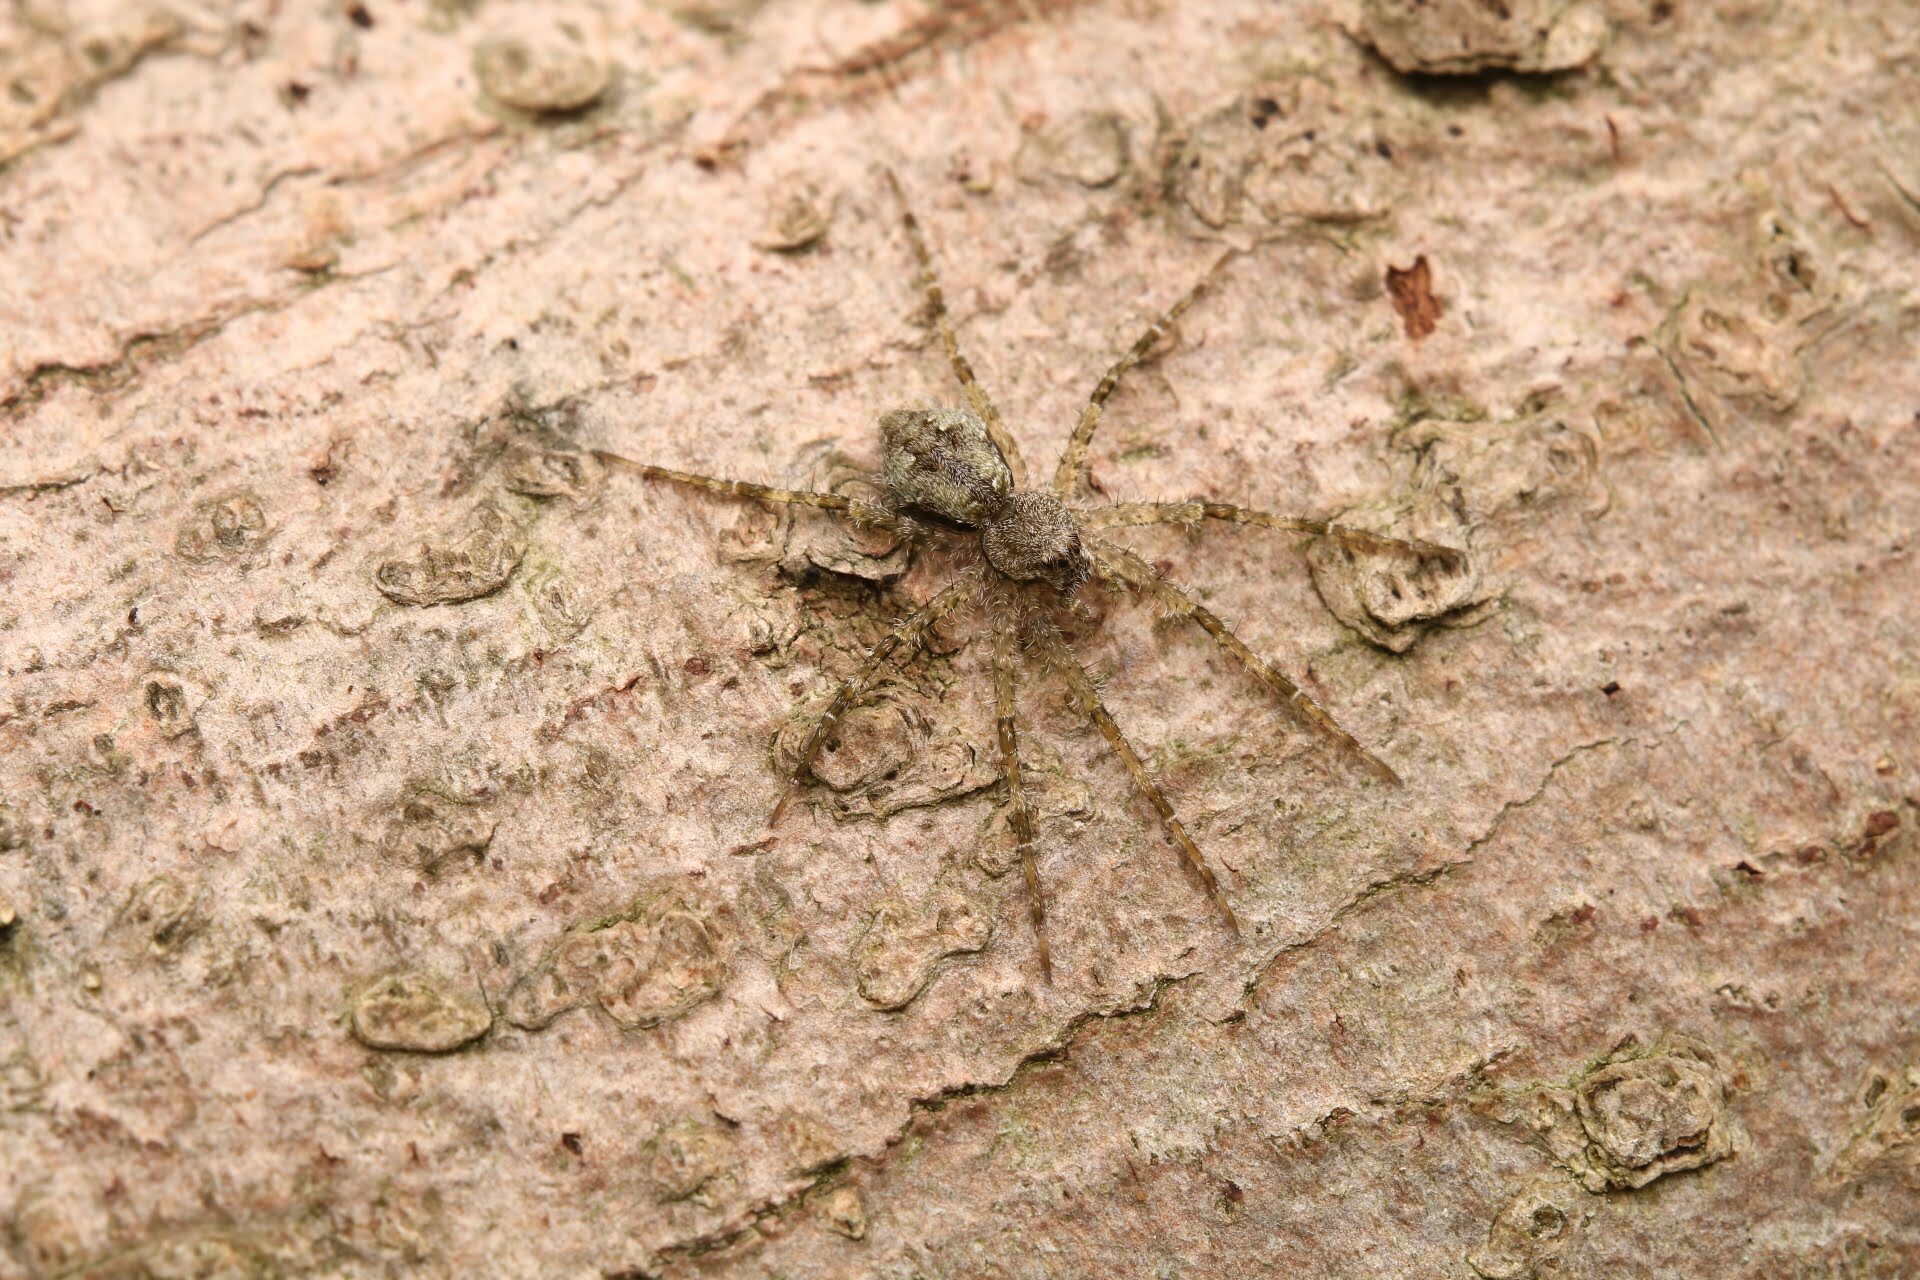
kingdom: Animalia
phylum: Arthropoda
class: Arachnida
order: Araneae
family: Pisauridae
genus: Dolomedes
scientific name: Dolomedes albineus
